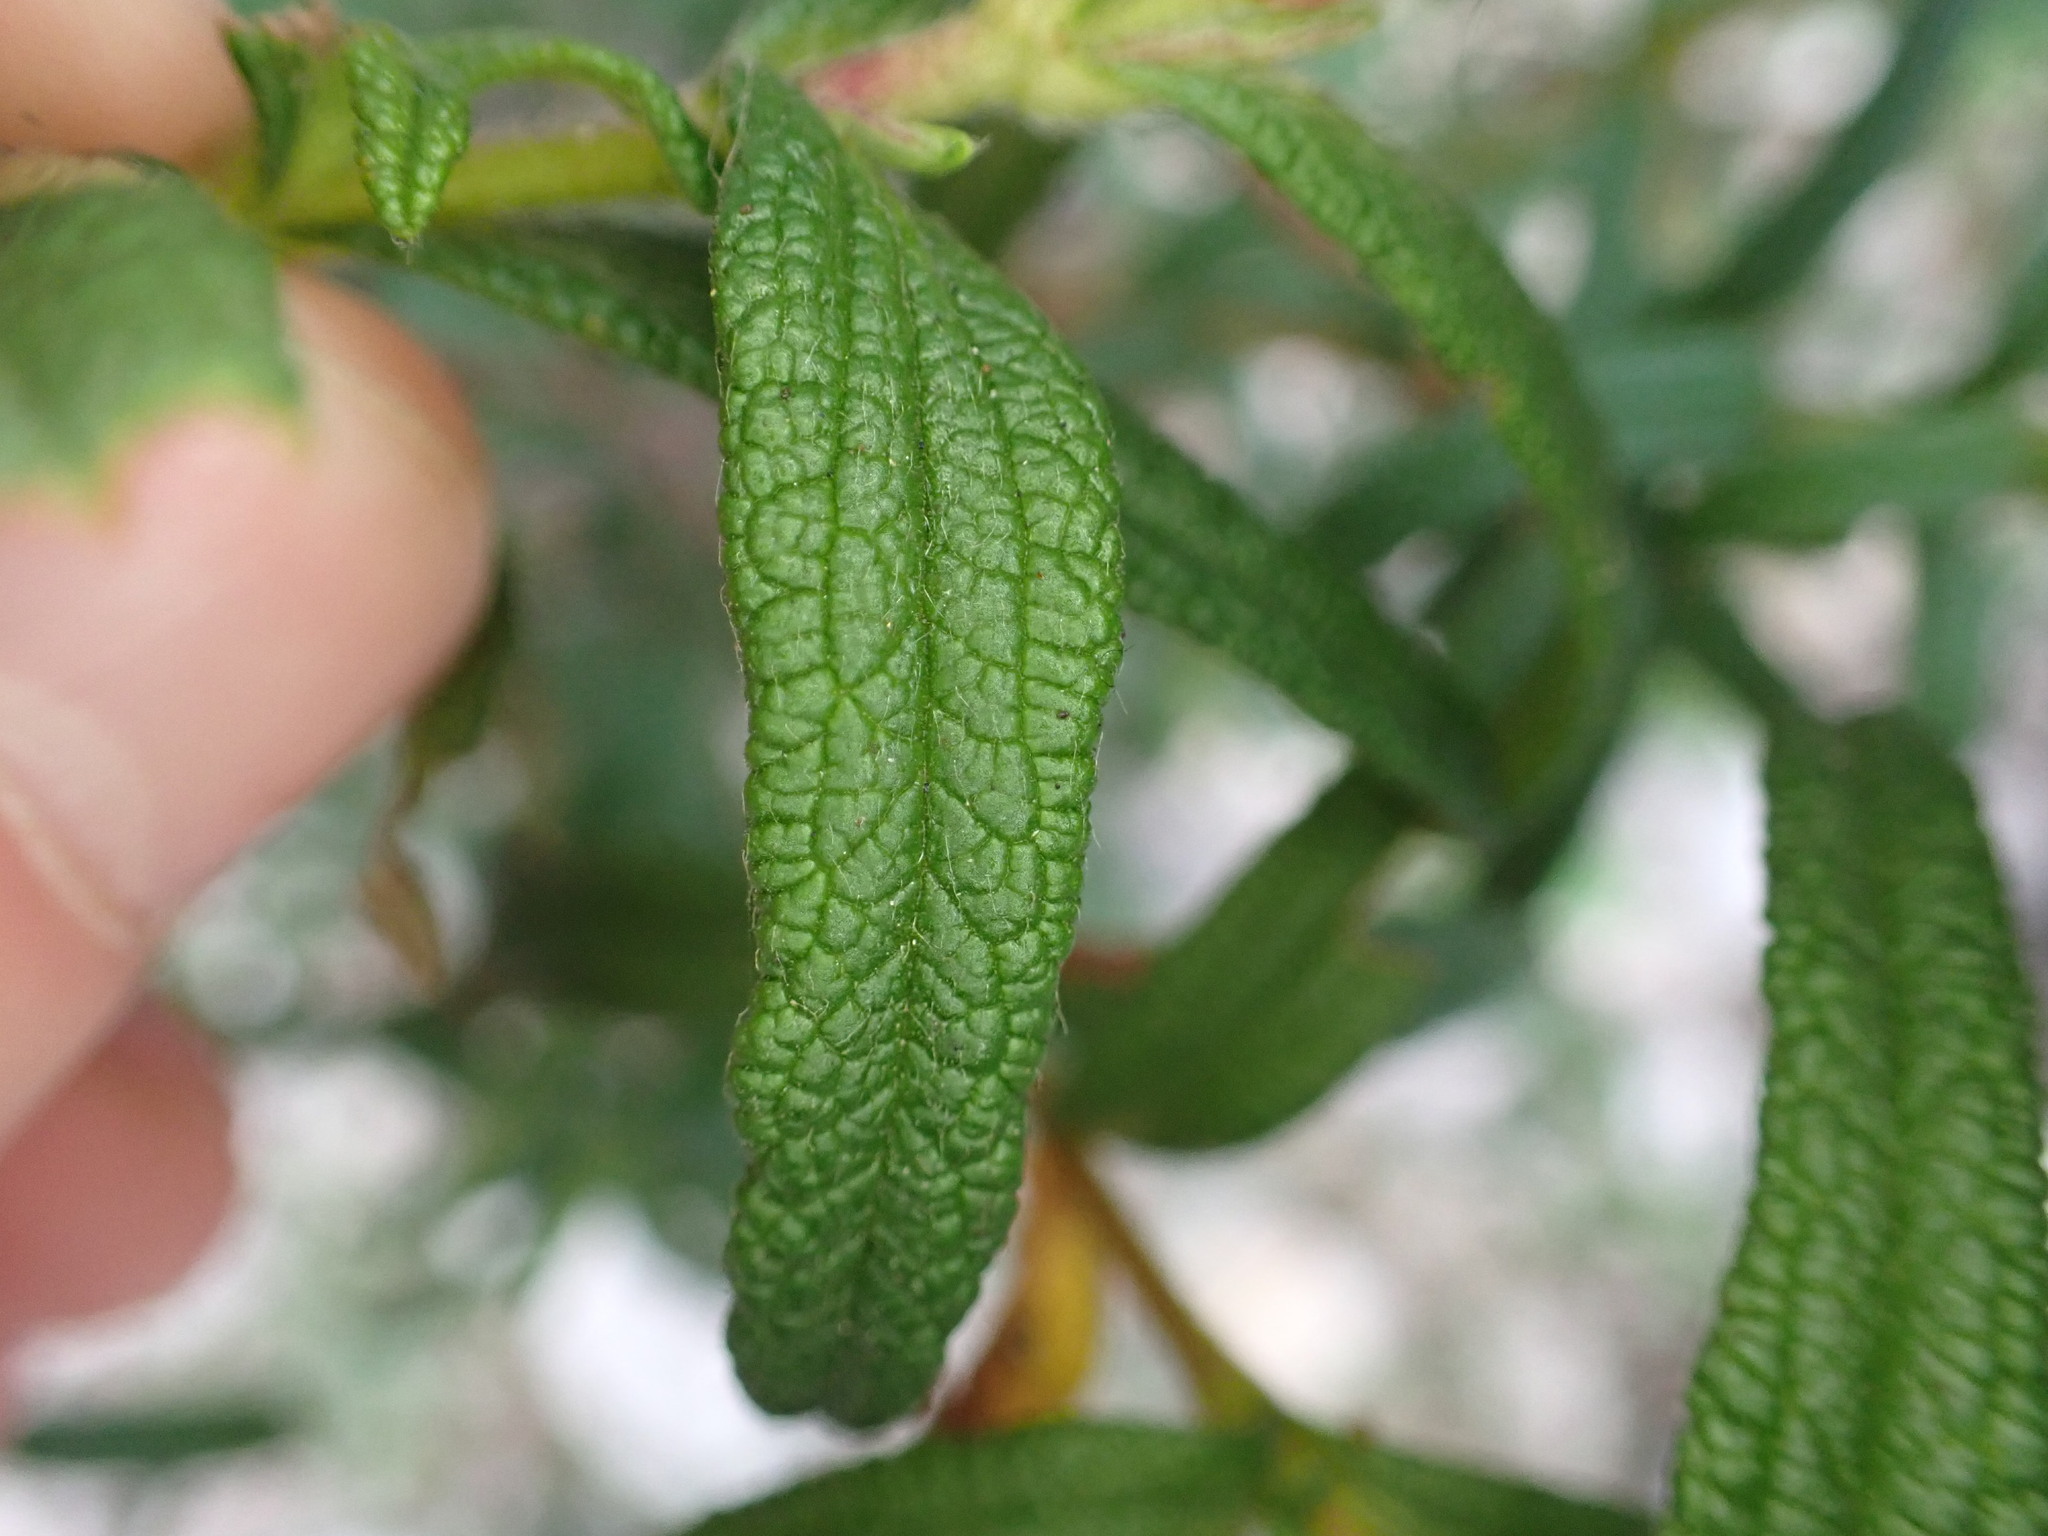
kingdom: Plantae
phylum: Tracheophyta
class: Magnoliopsida
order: Malvales
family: Cistaceae
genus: Cistus
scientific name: Cistus monspeliensis
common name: Montpelier cistus
